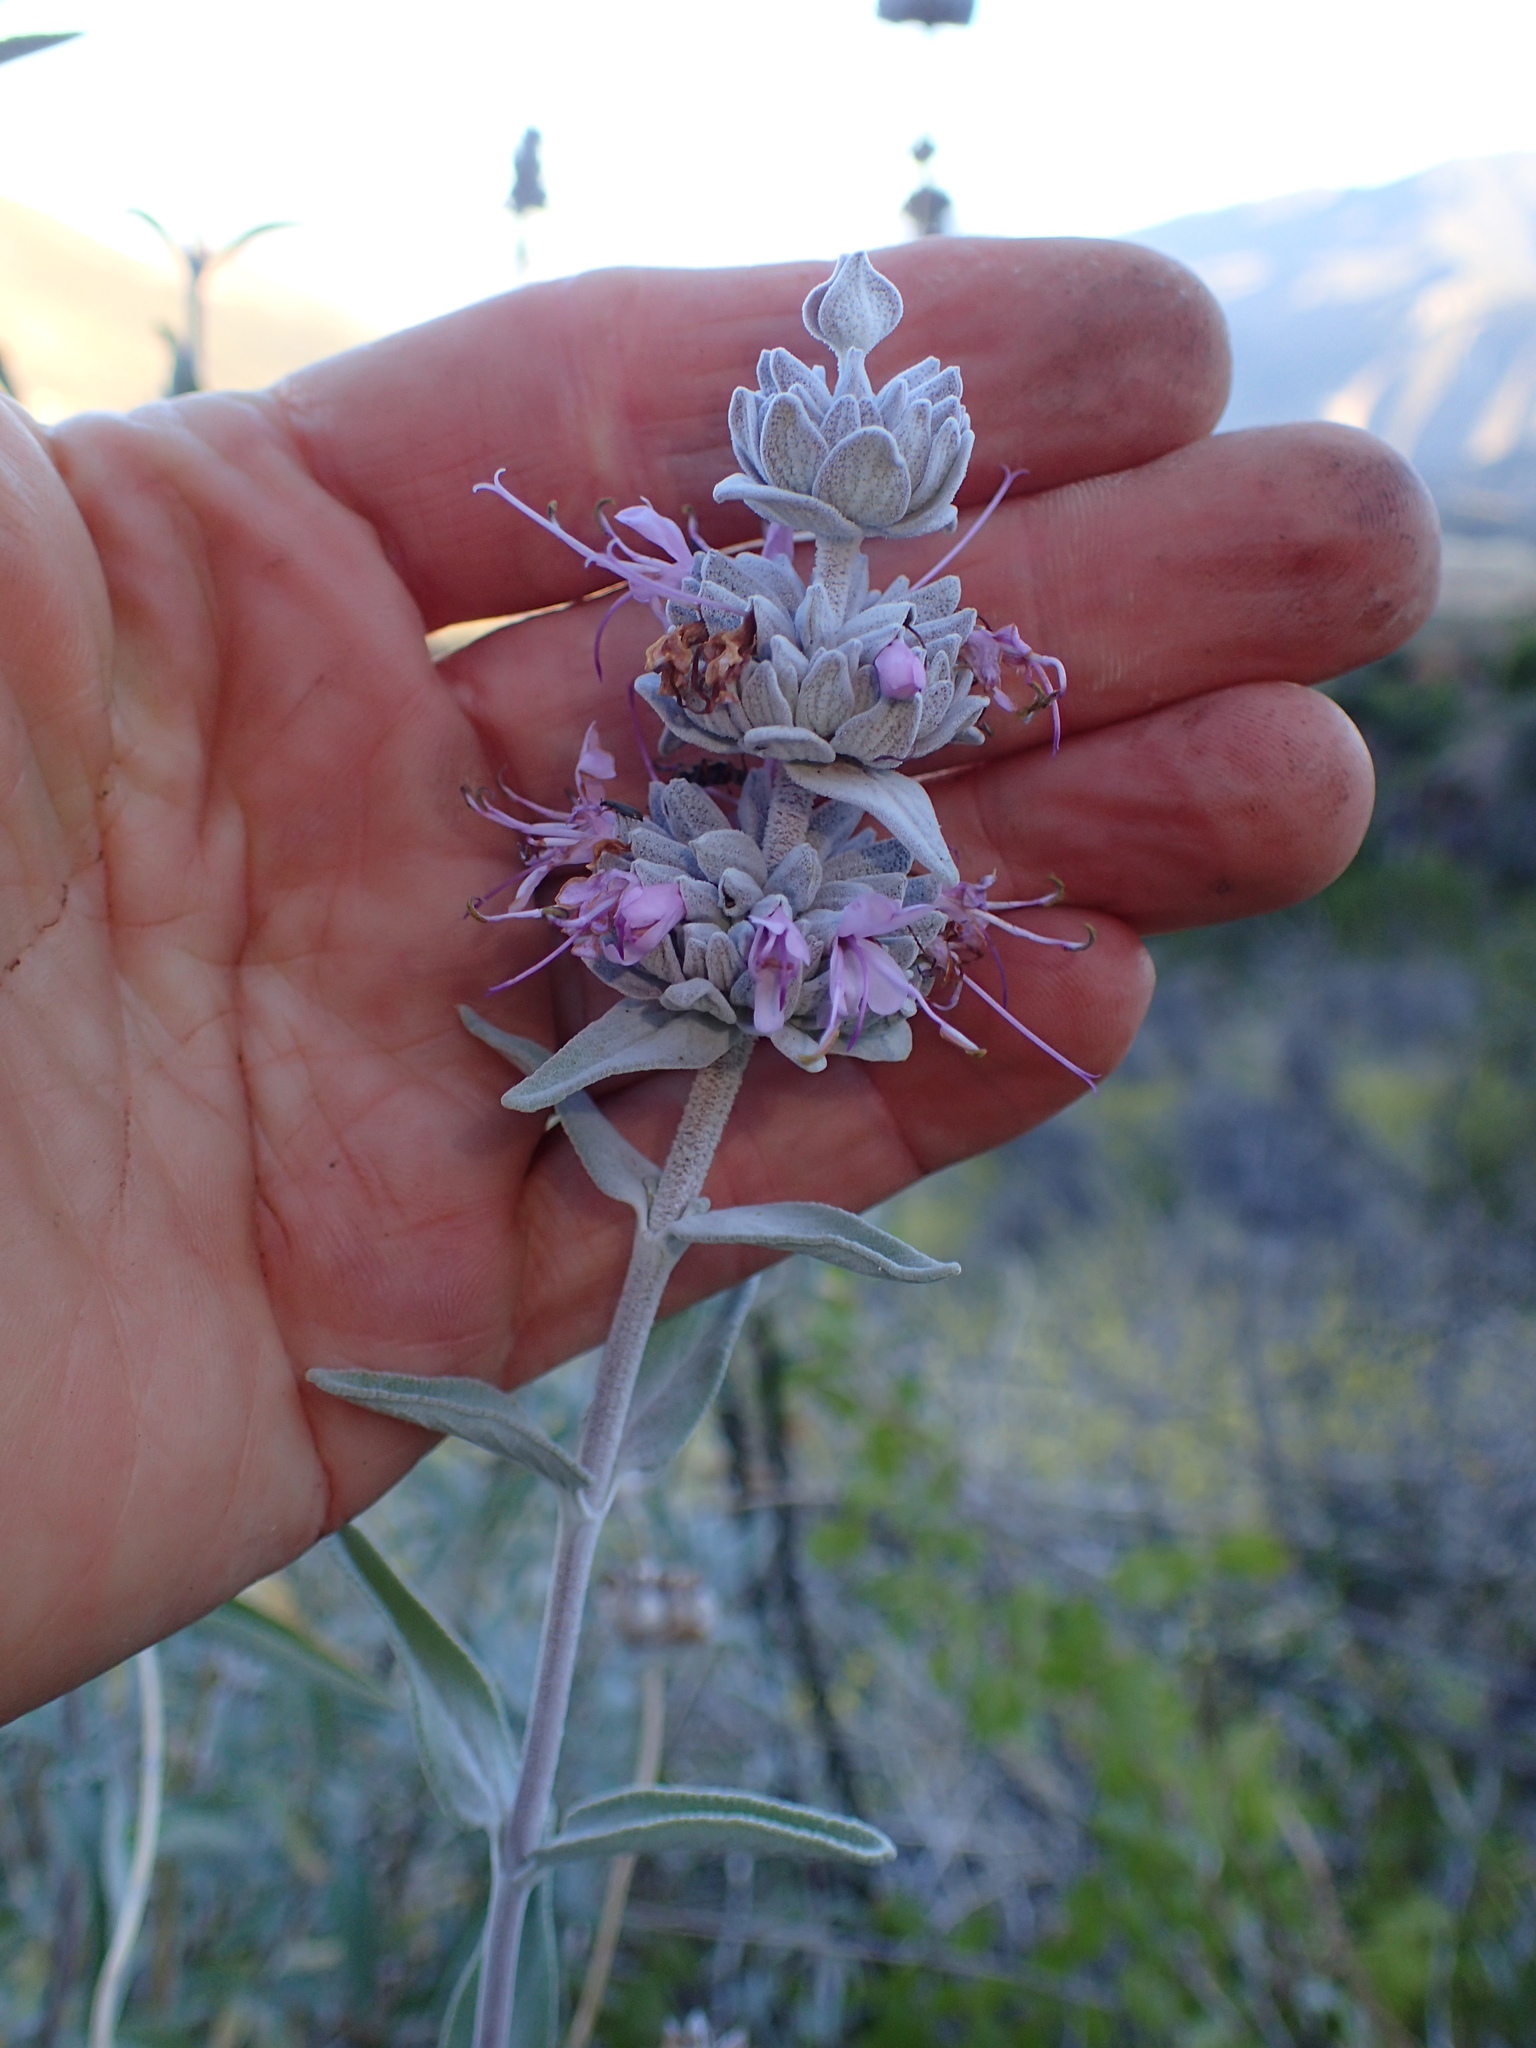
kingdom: Plantae
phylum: Tracheophyta
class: Magnoliopsida
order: Lamiales
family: Lamiaceae
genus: Salvia
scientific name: Salvia leucophylla
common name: Purple sage
